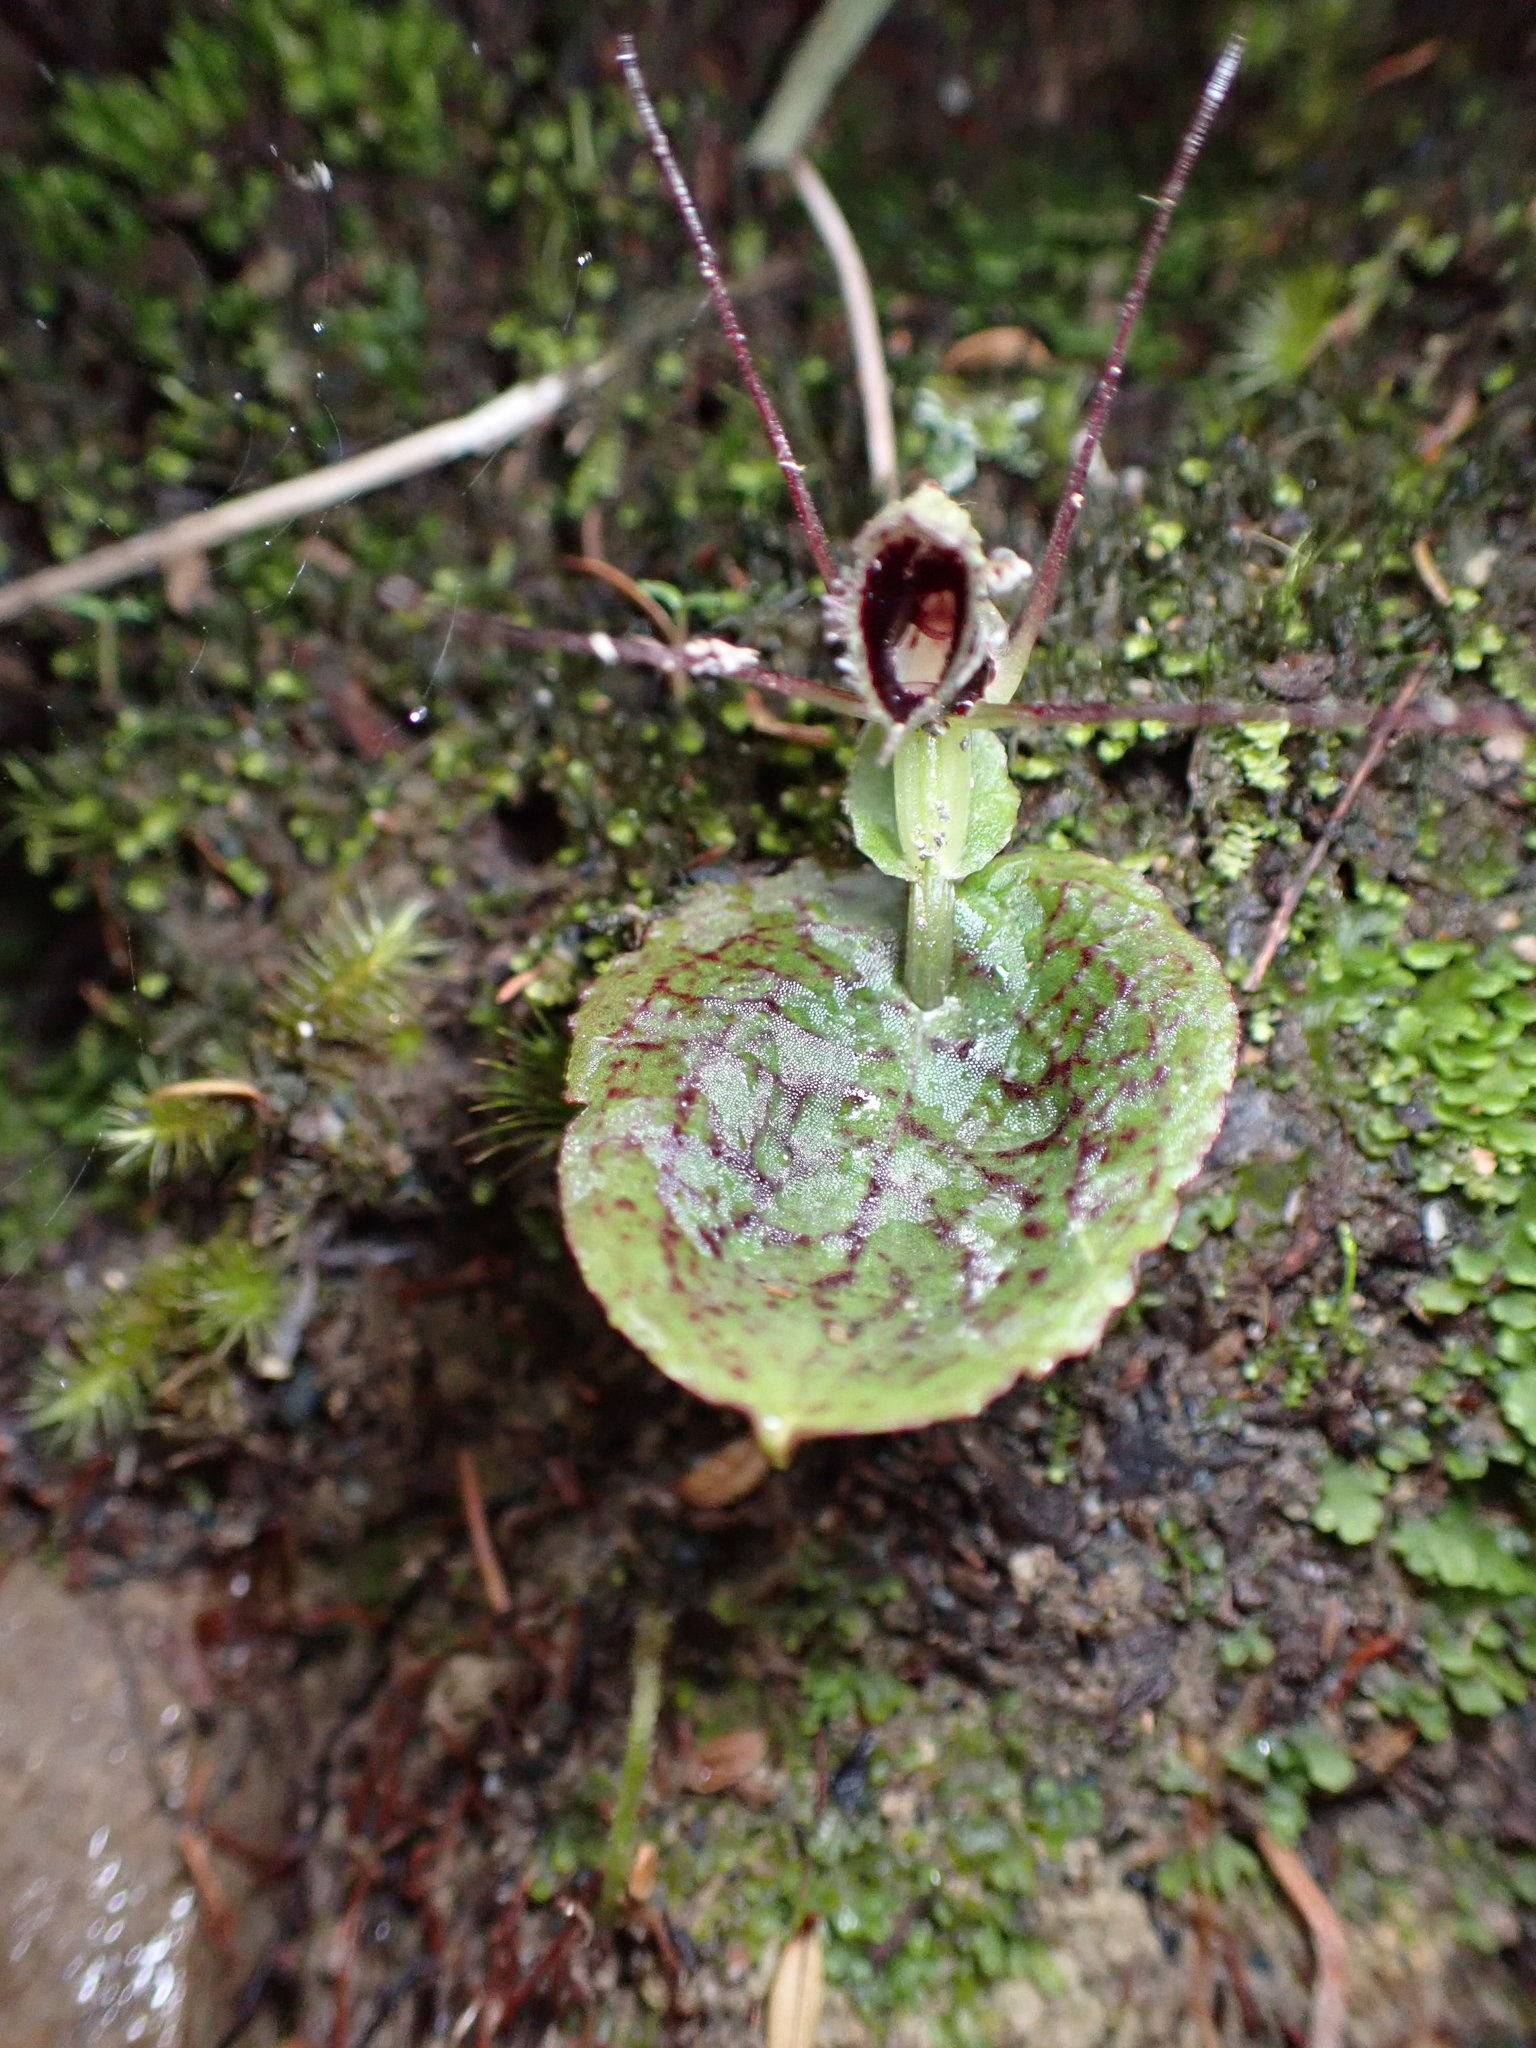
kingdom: Plantae
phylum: Tracheophyta
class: Liliopsida
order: Asparagales
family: Orchidaceae
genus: Corybas
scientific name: Corybas oblongus
